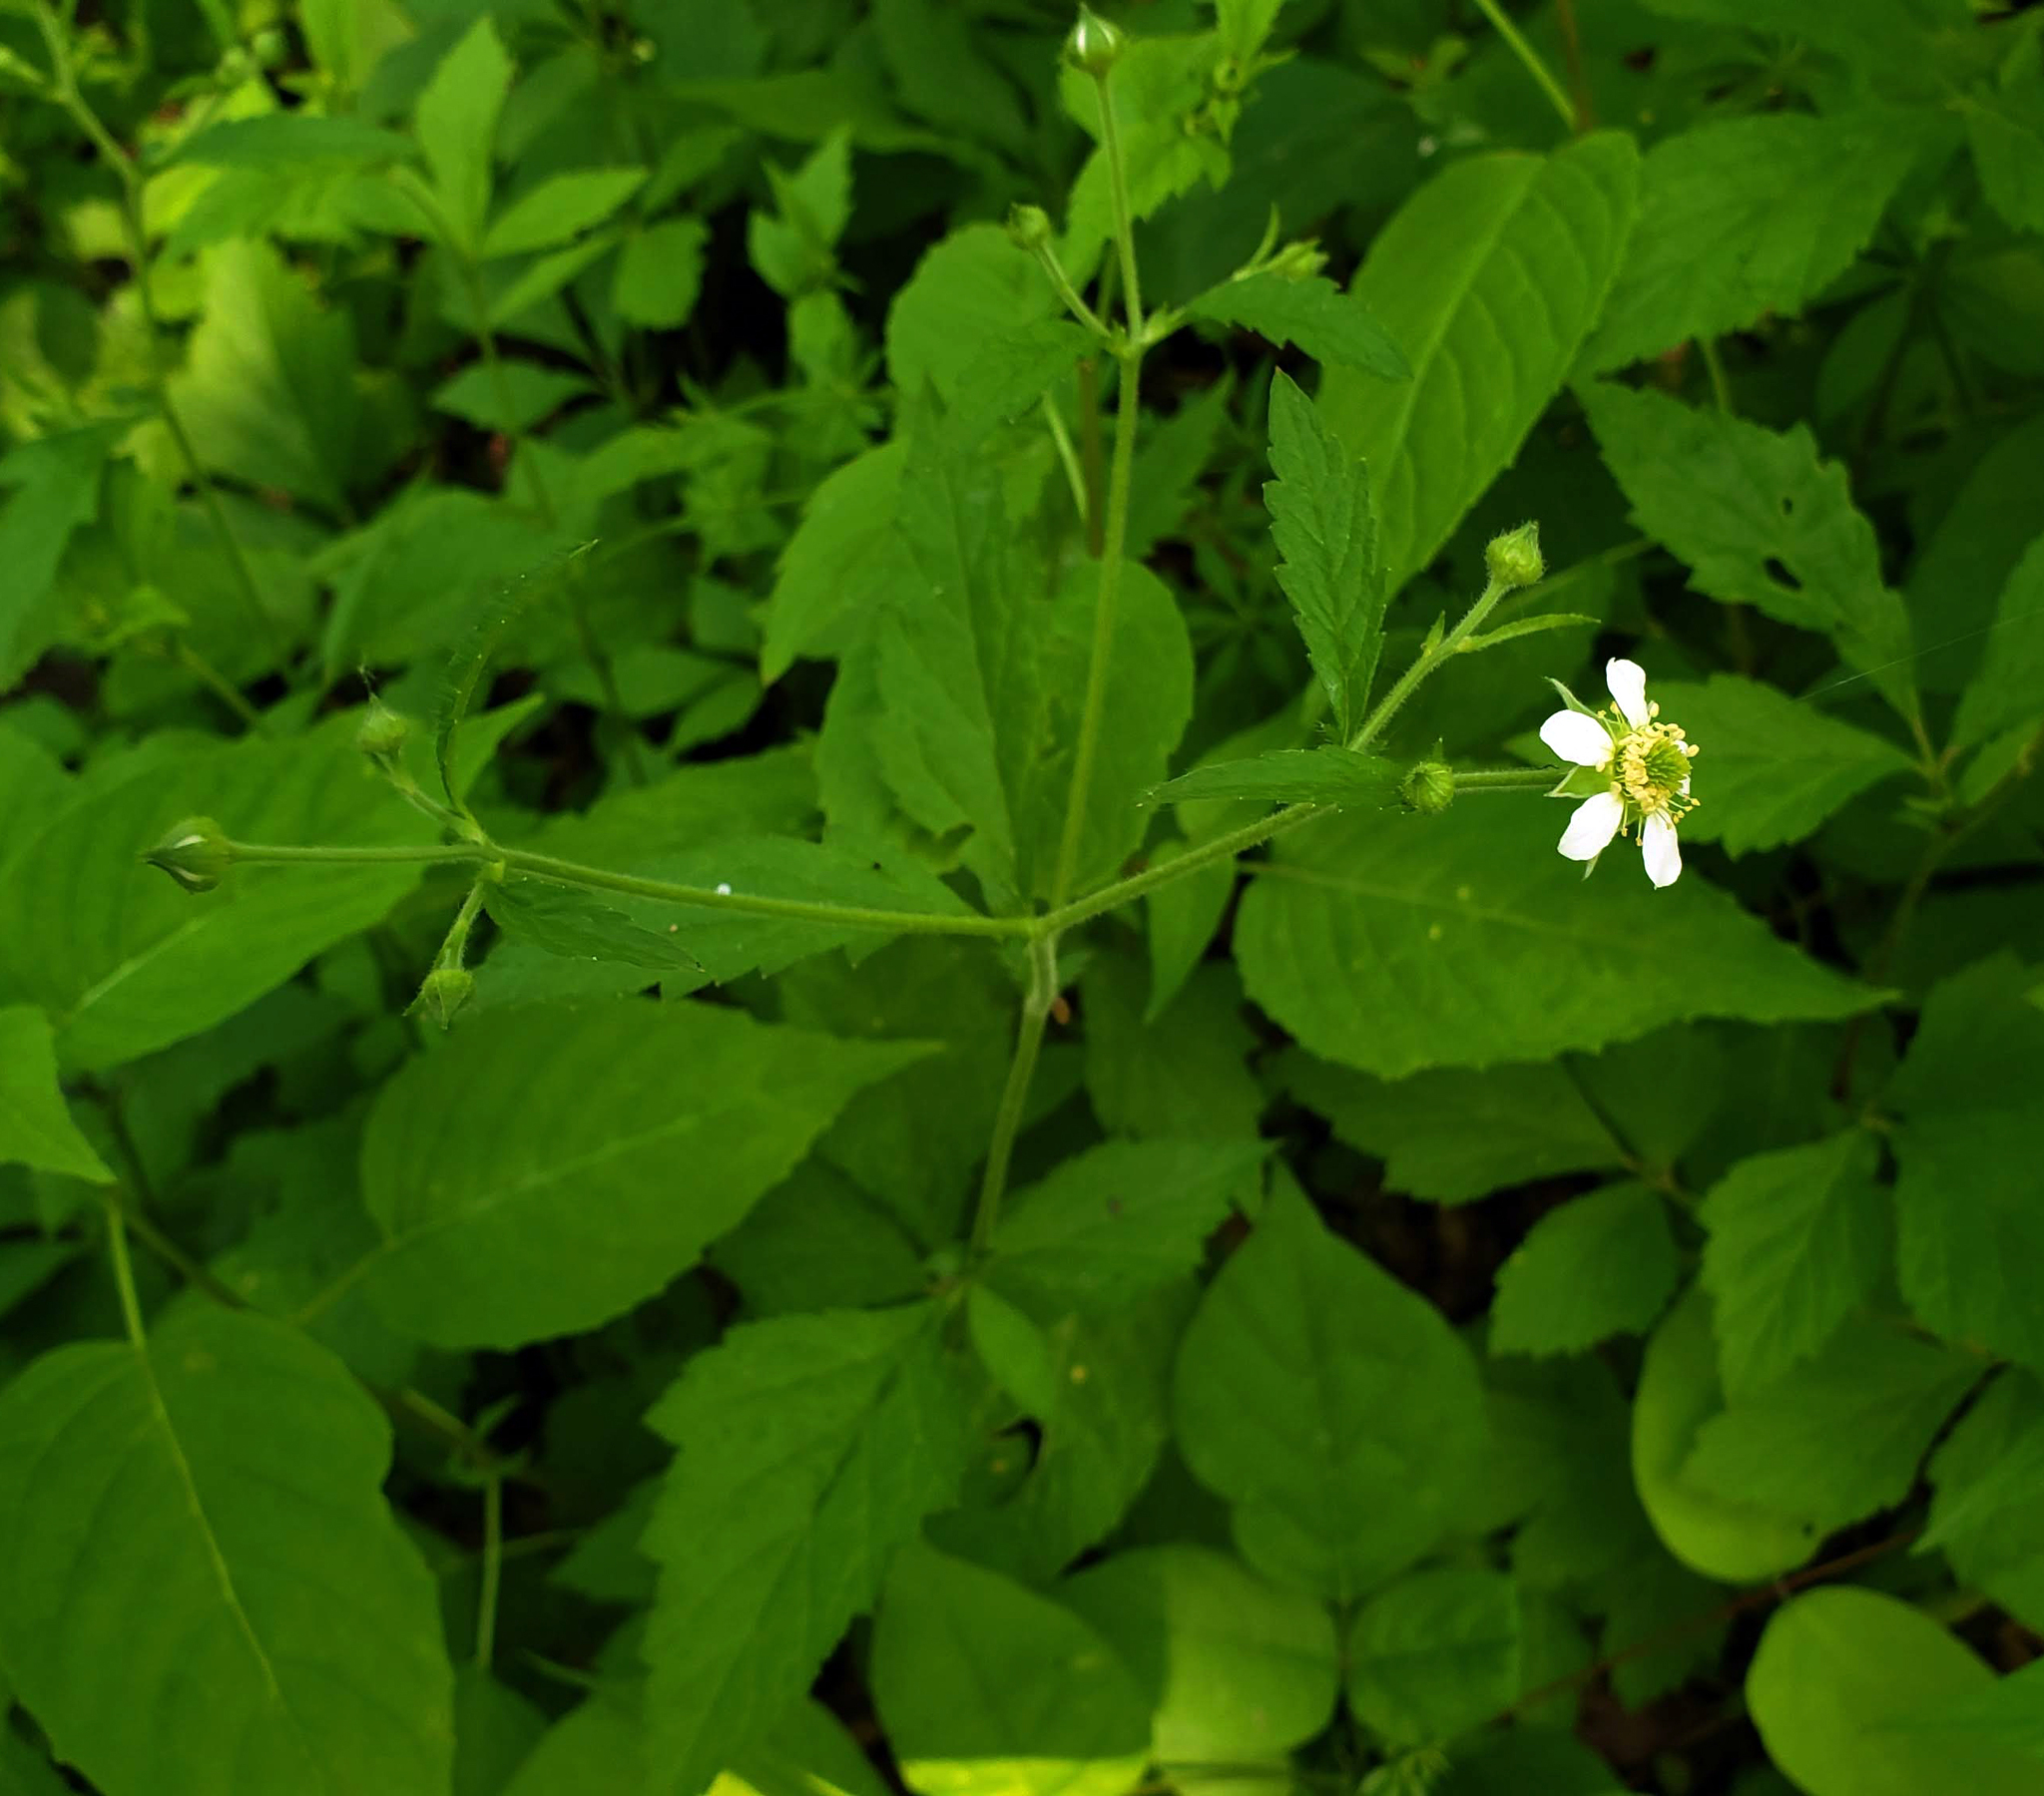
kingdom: Plantae
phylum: Tracheophyta
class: Magnoliopsida
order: Rosales
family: Rosaceae
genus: Geum
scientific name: Geum canadense
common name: White avens
